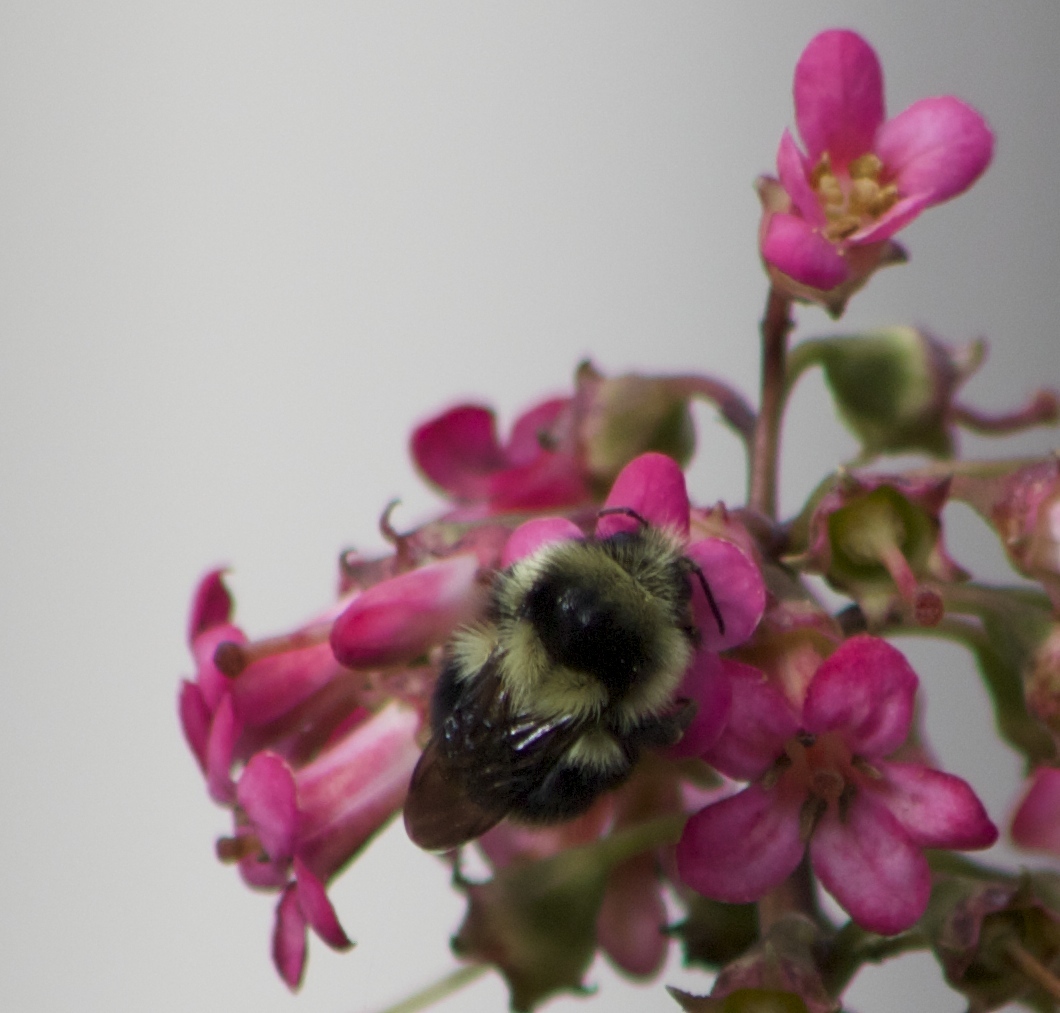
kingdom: Animalia
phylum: Arthropoda
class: Insecta
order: Hymenoptera
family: Apidae
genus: Bombus
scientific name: Bombus melanopygus
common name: Black tail bumble bee
